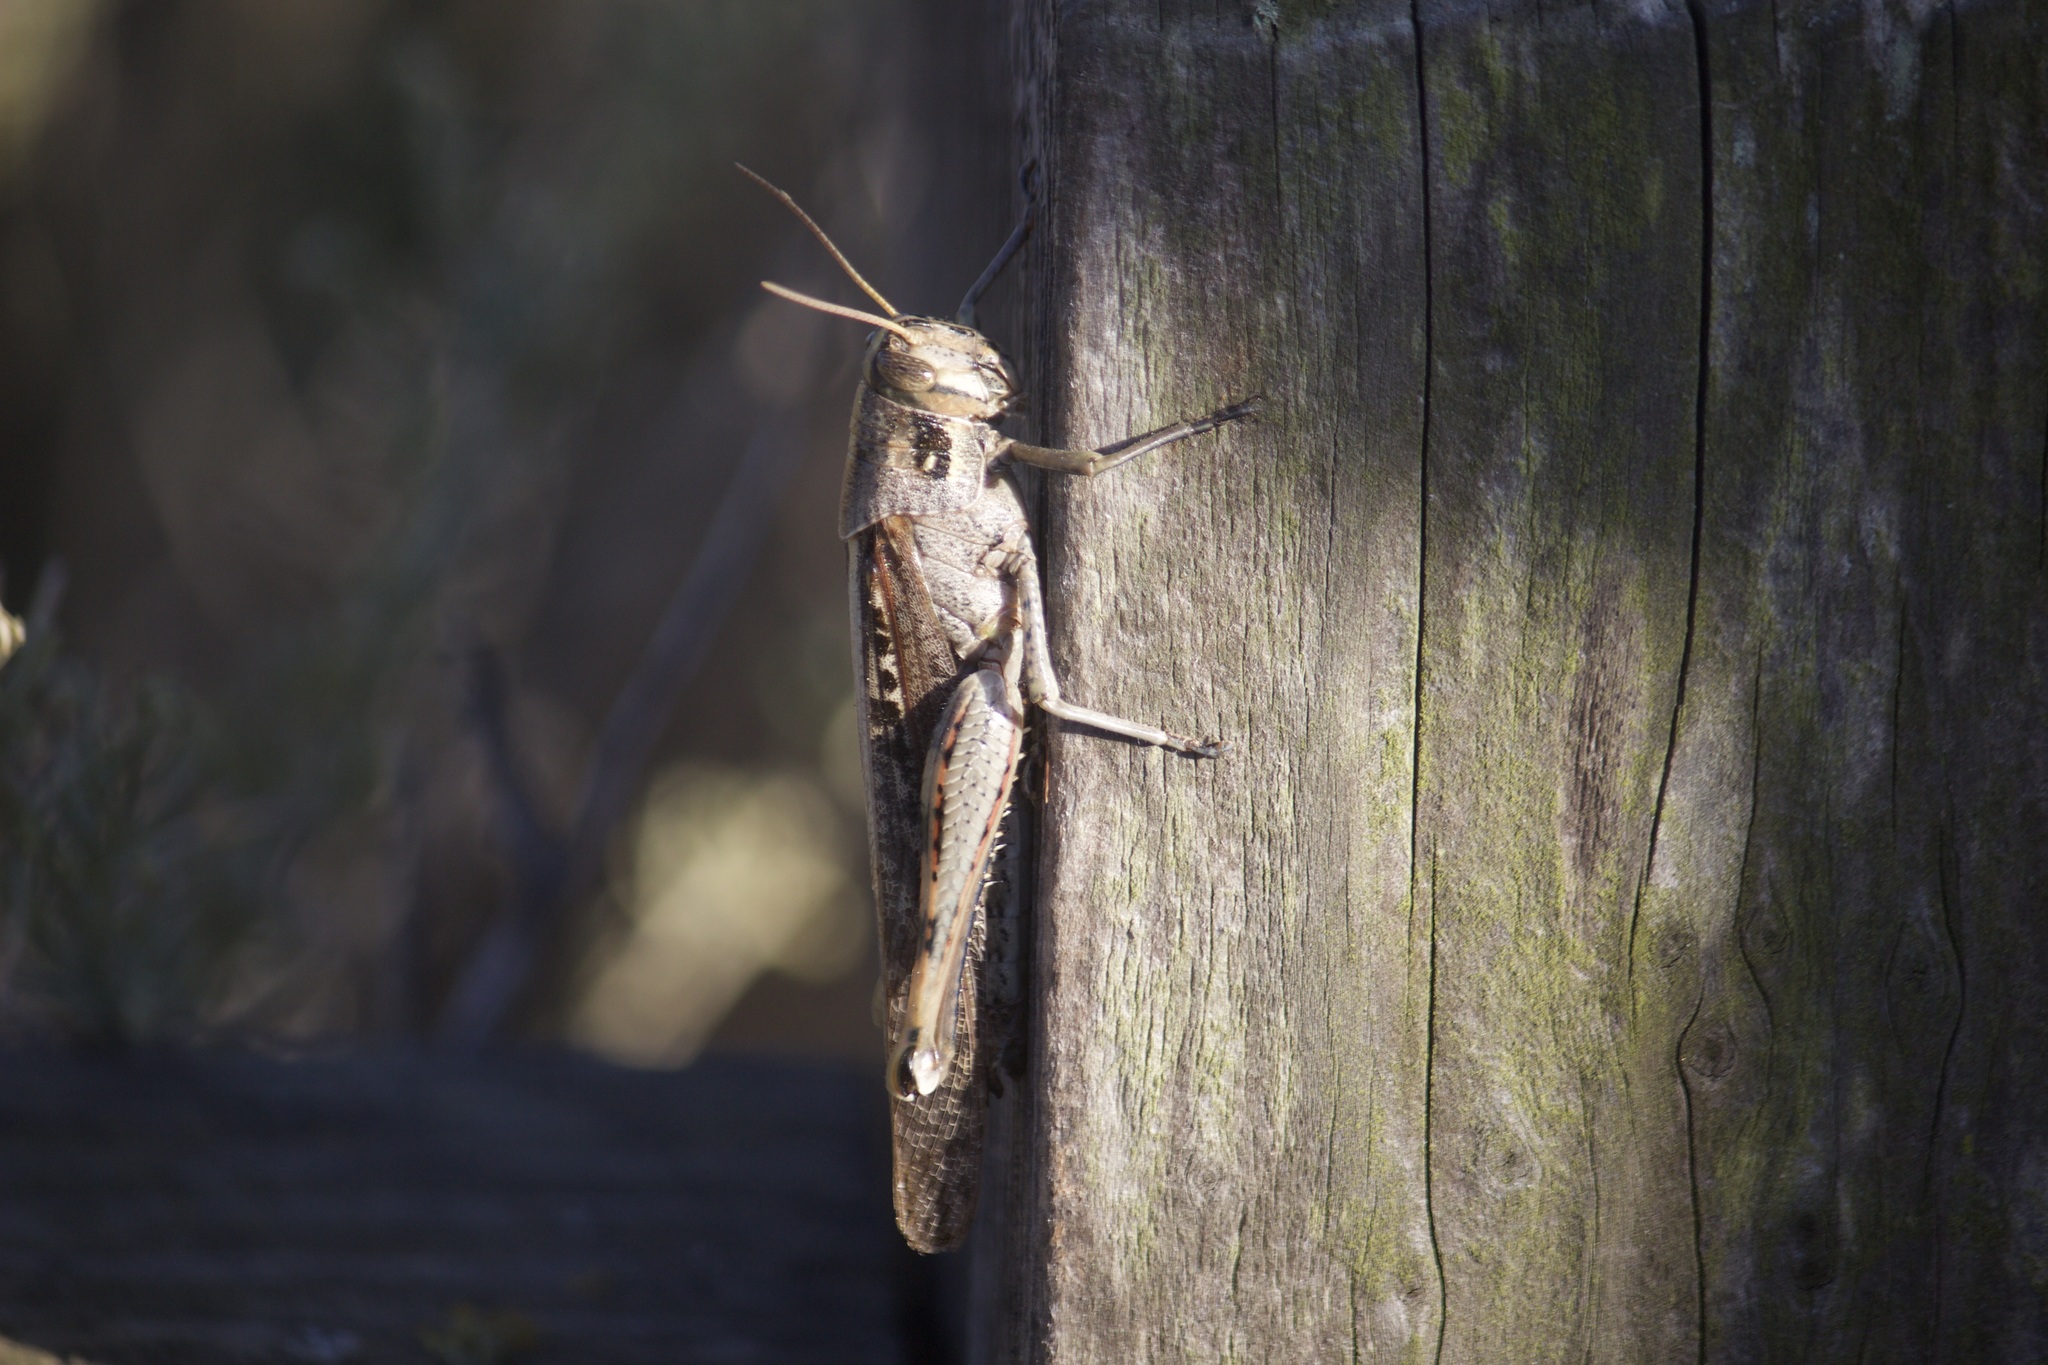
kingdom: Animalia
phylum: Arthropoda
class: Insecta
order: Orthoptera
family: Acrididae
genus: Schistocerca
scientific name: Schistocerca nitens
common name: Vagrant grasshopper
